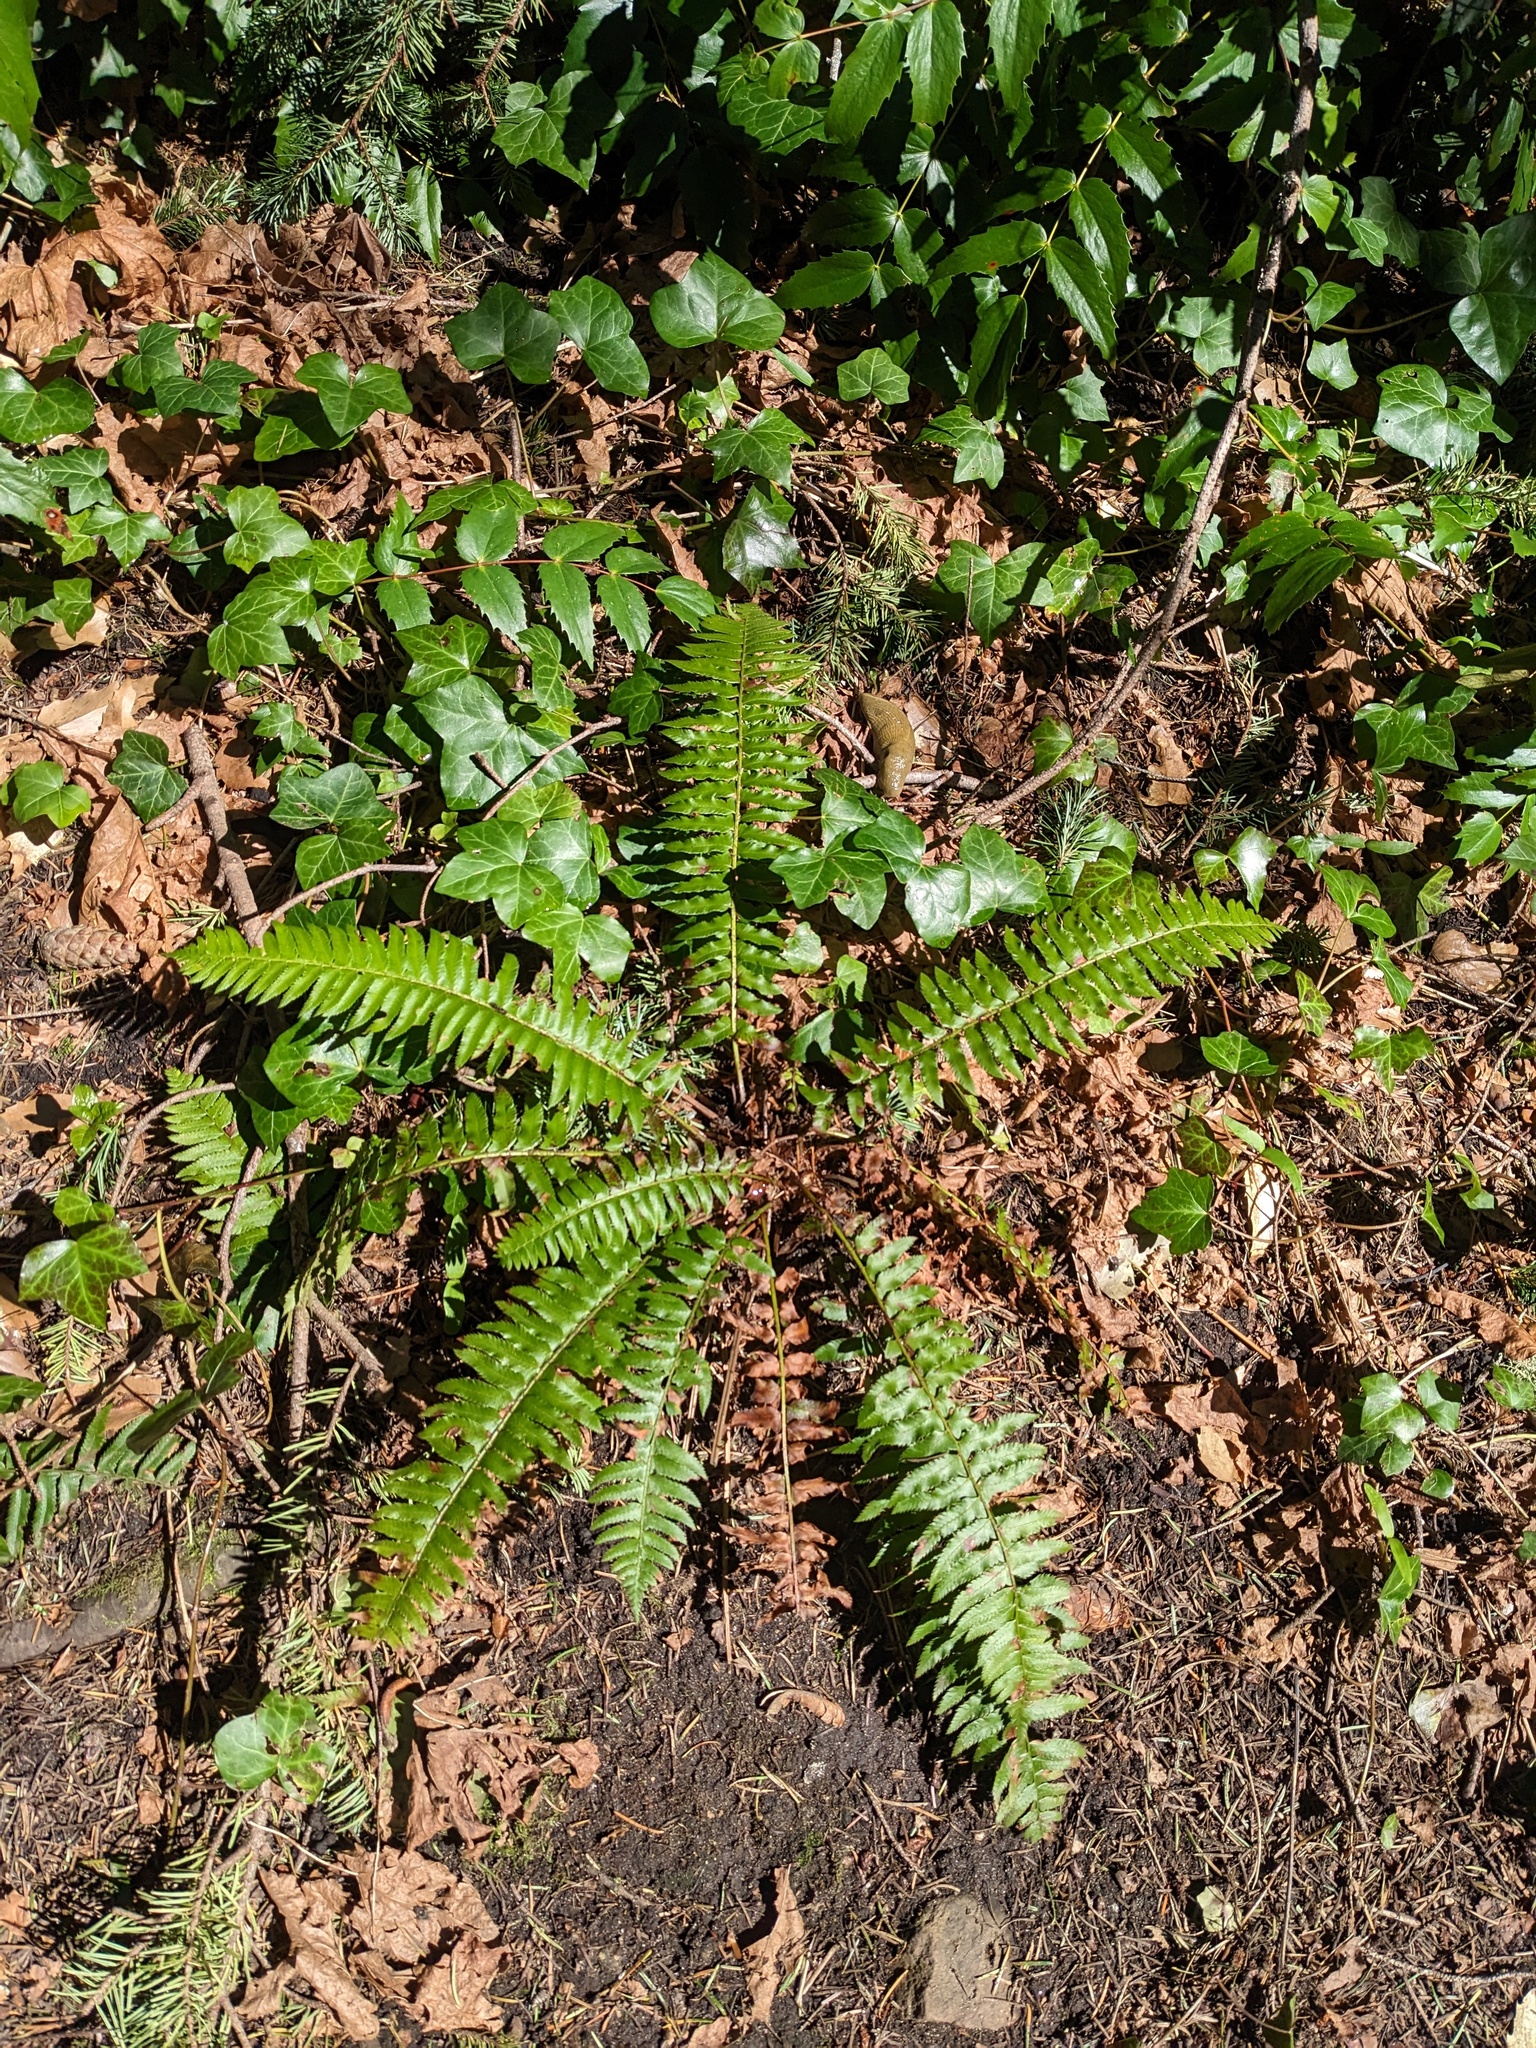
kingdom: Plantae
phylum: Tracheophyta
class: Polypodiopsida
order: Polypodiales
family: Dryopteridaceae
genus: Polystichum
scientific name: Polystichum munitum
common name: Western sword-fern
